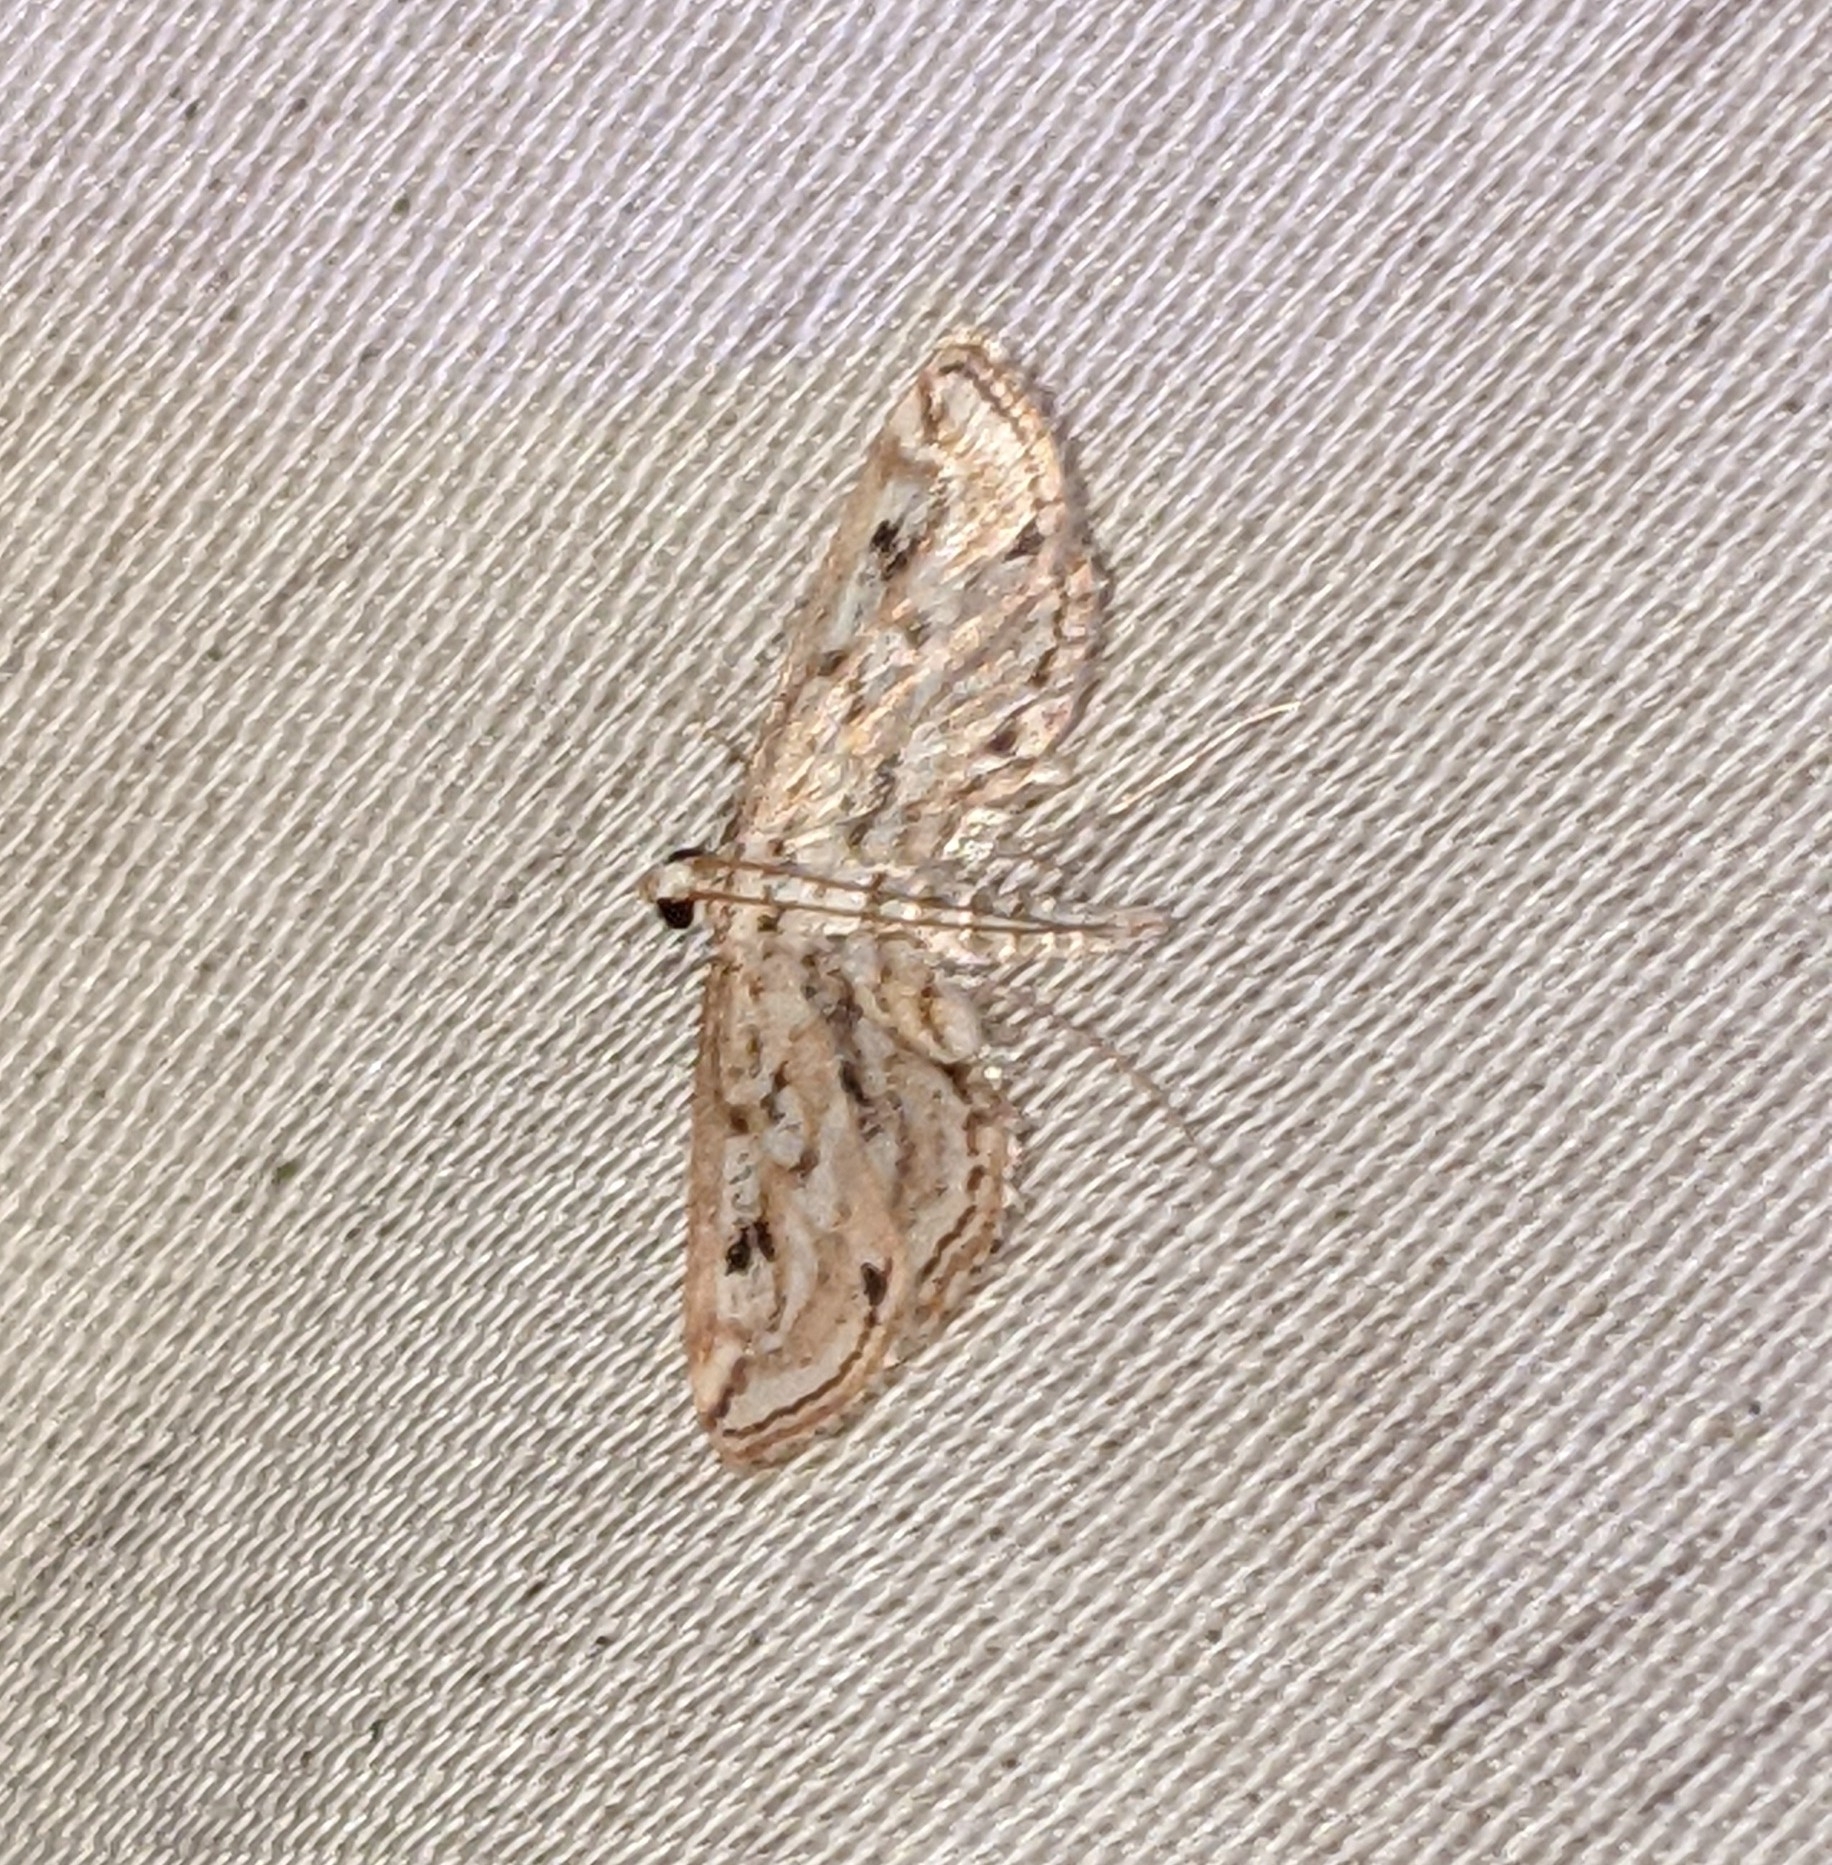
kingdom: Animalia
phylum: Arthropoda
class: Insecta
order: Lepidoptera
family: Crambidae
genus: Parapoynx
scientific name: Parapoynx allionealis
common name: Bladderwort casemaker
